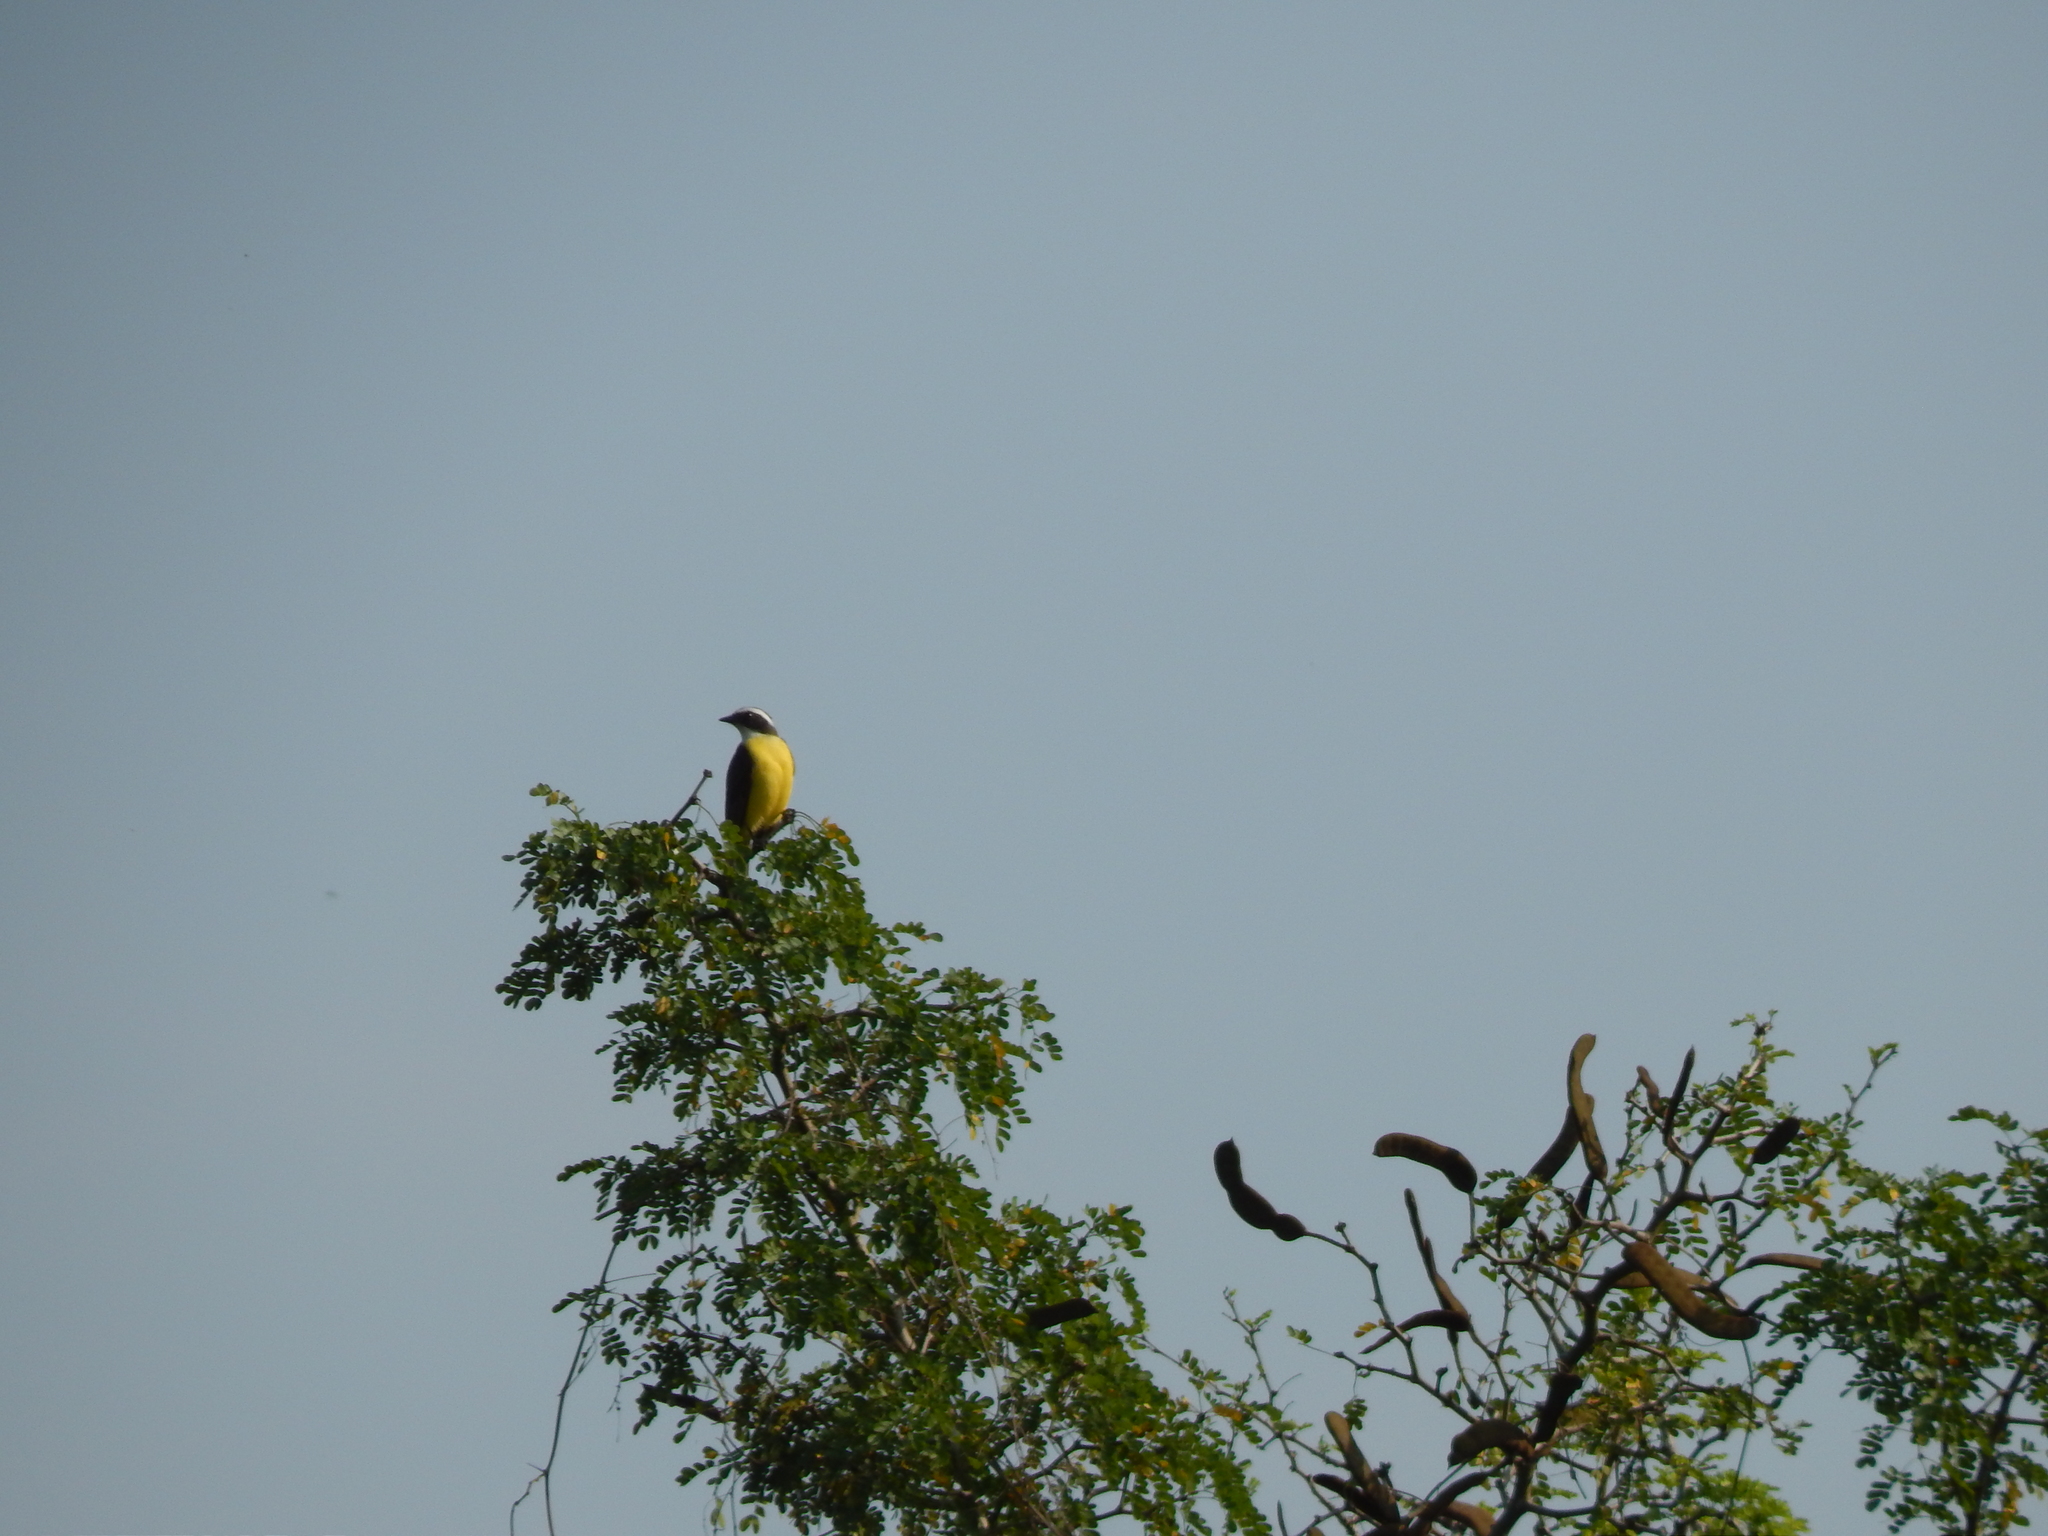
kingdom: Animalia
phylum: Chordata
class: Aves
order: Passeriformes
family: Tyrannidae
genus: Myiozetetes
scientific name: Myiozetetes similis
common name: Social flycatcher
